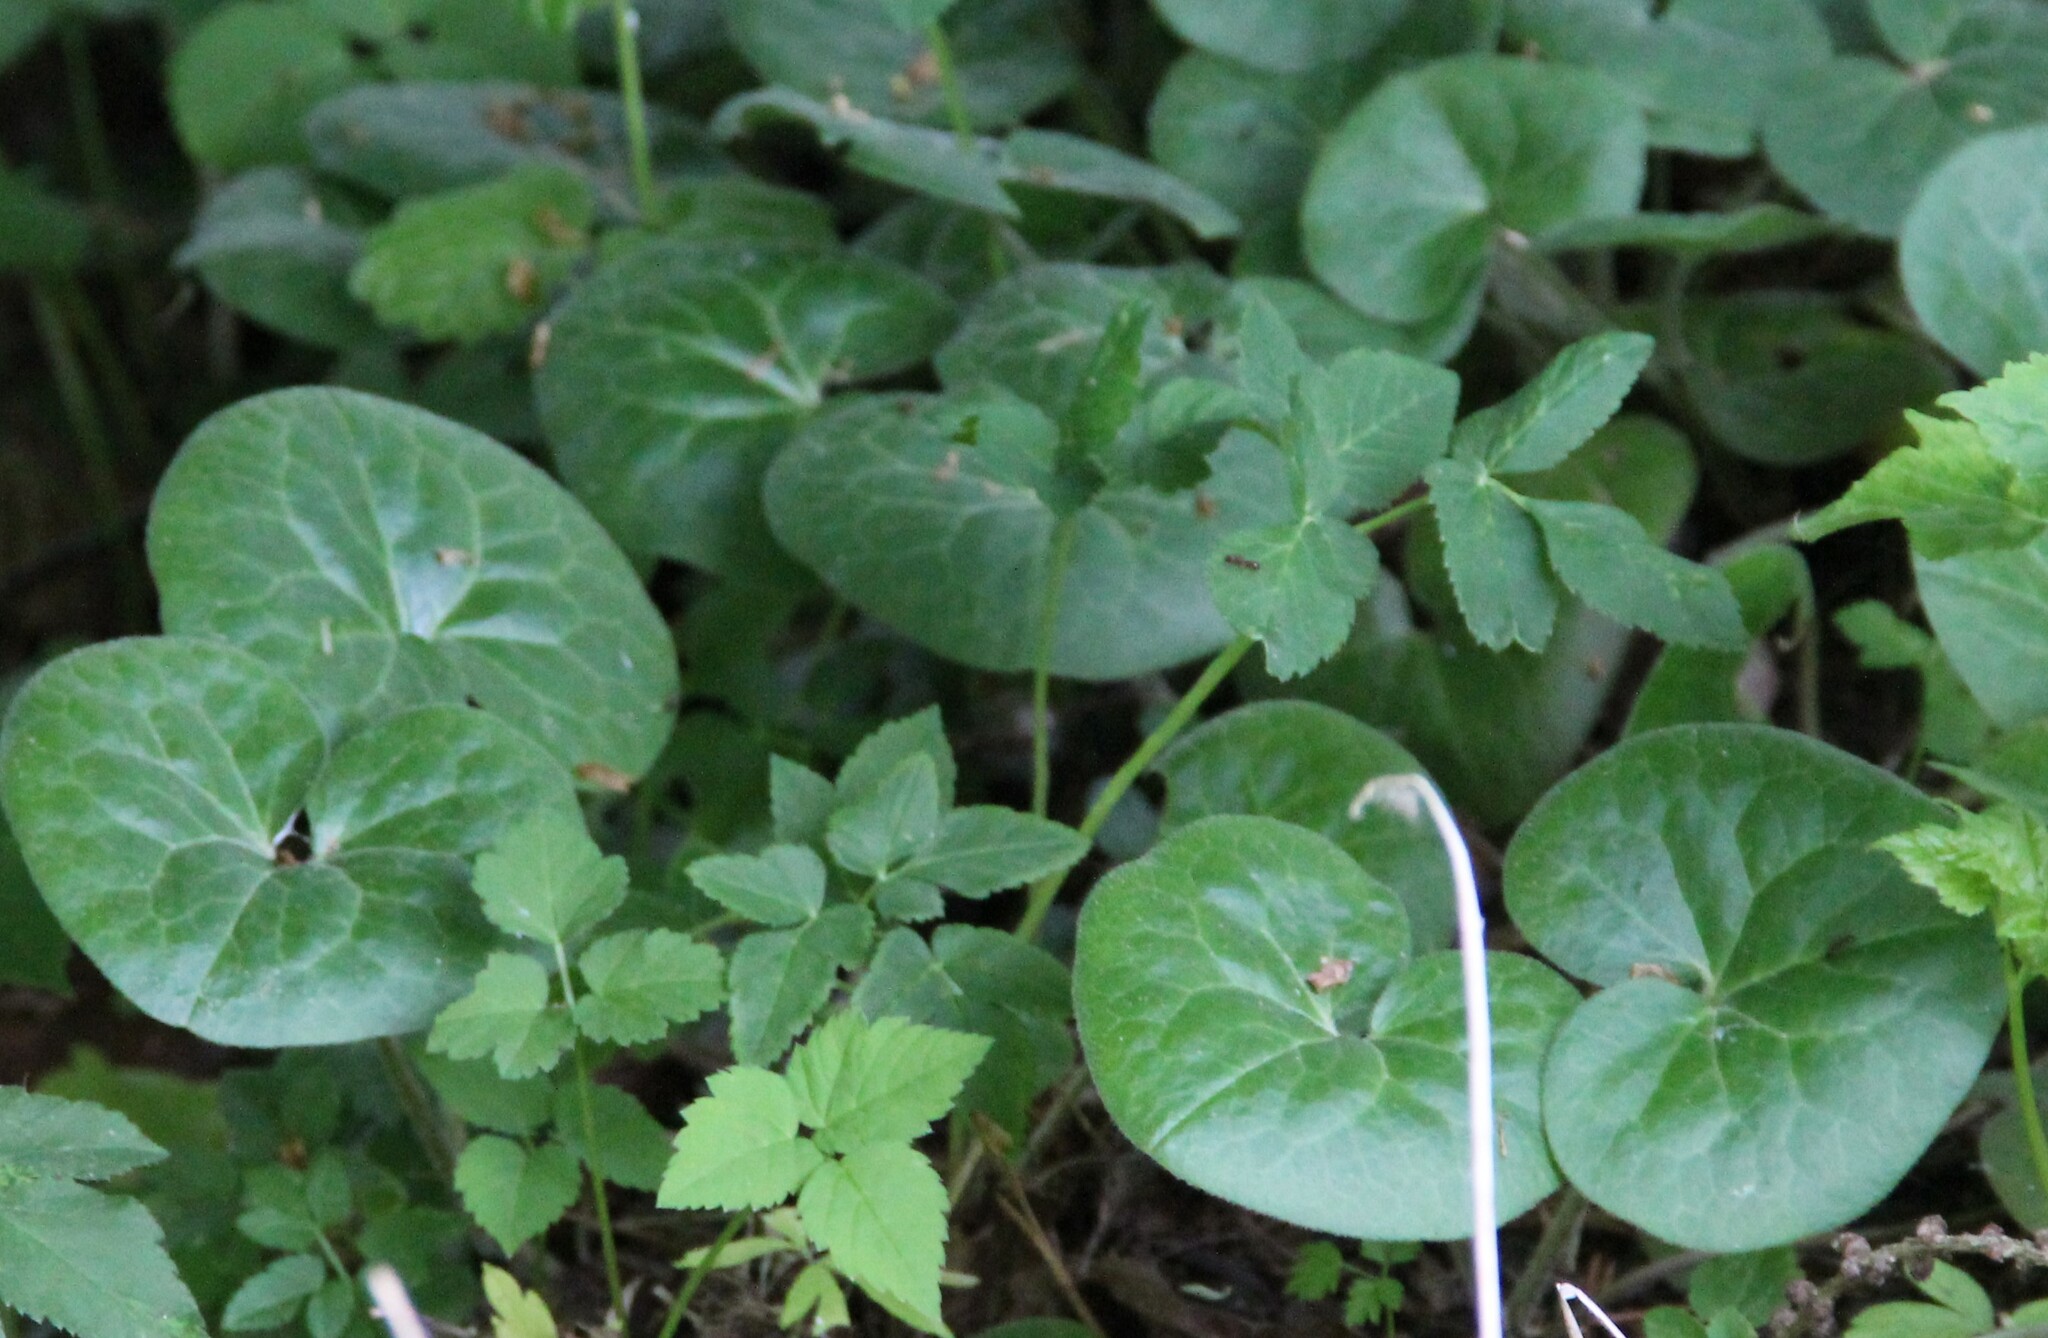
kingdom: Plantae
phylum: Tracheophyta
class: Magnoliopsida
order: Piperales
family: Aristolochiaceae
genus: Asarum
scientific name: Asarum europaeum
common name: Asarabacca
